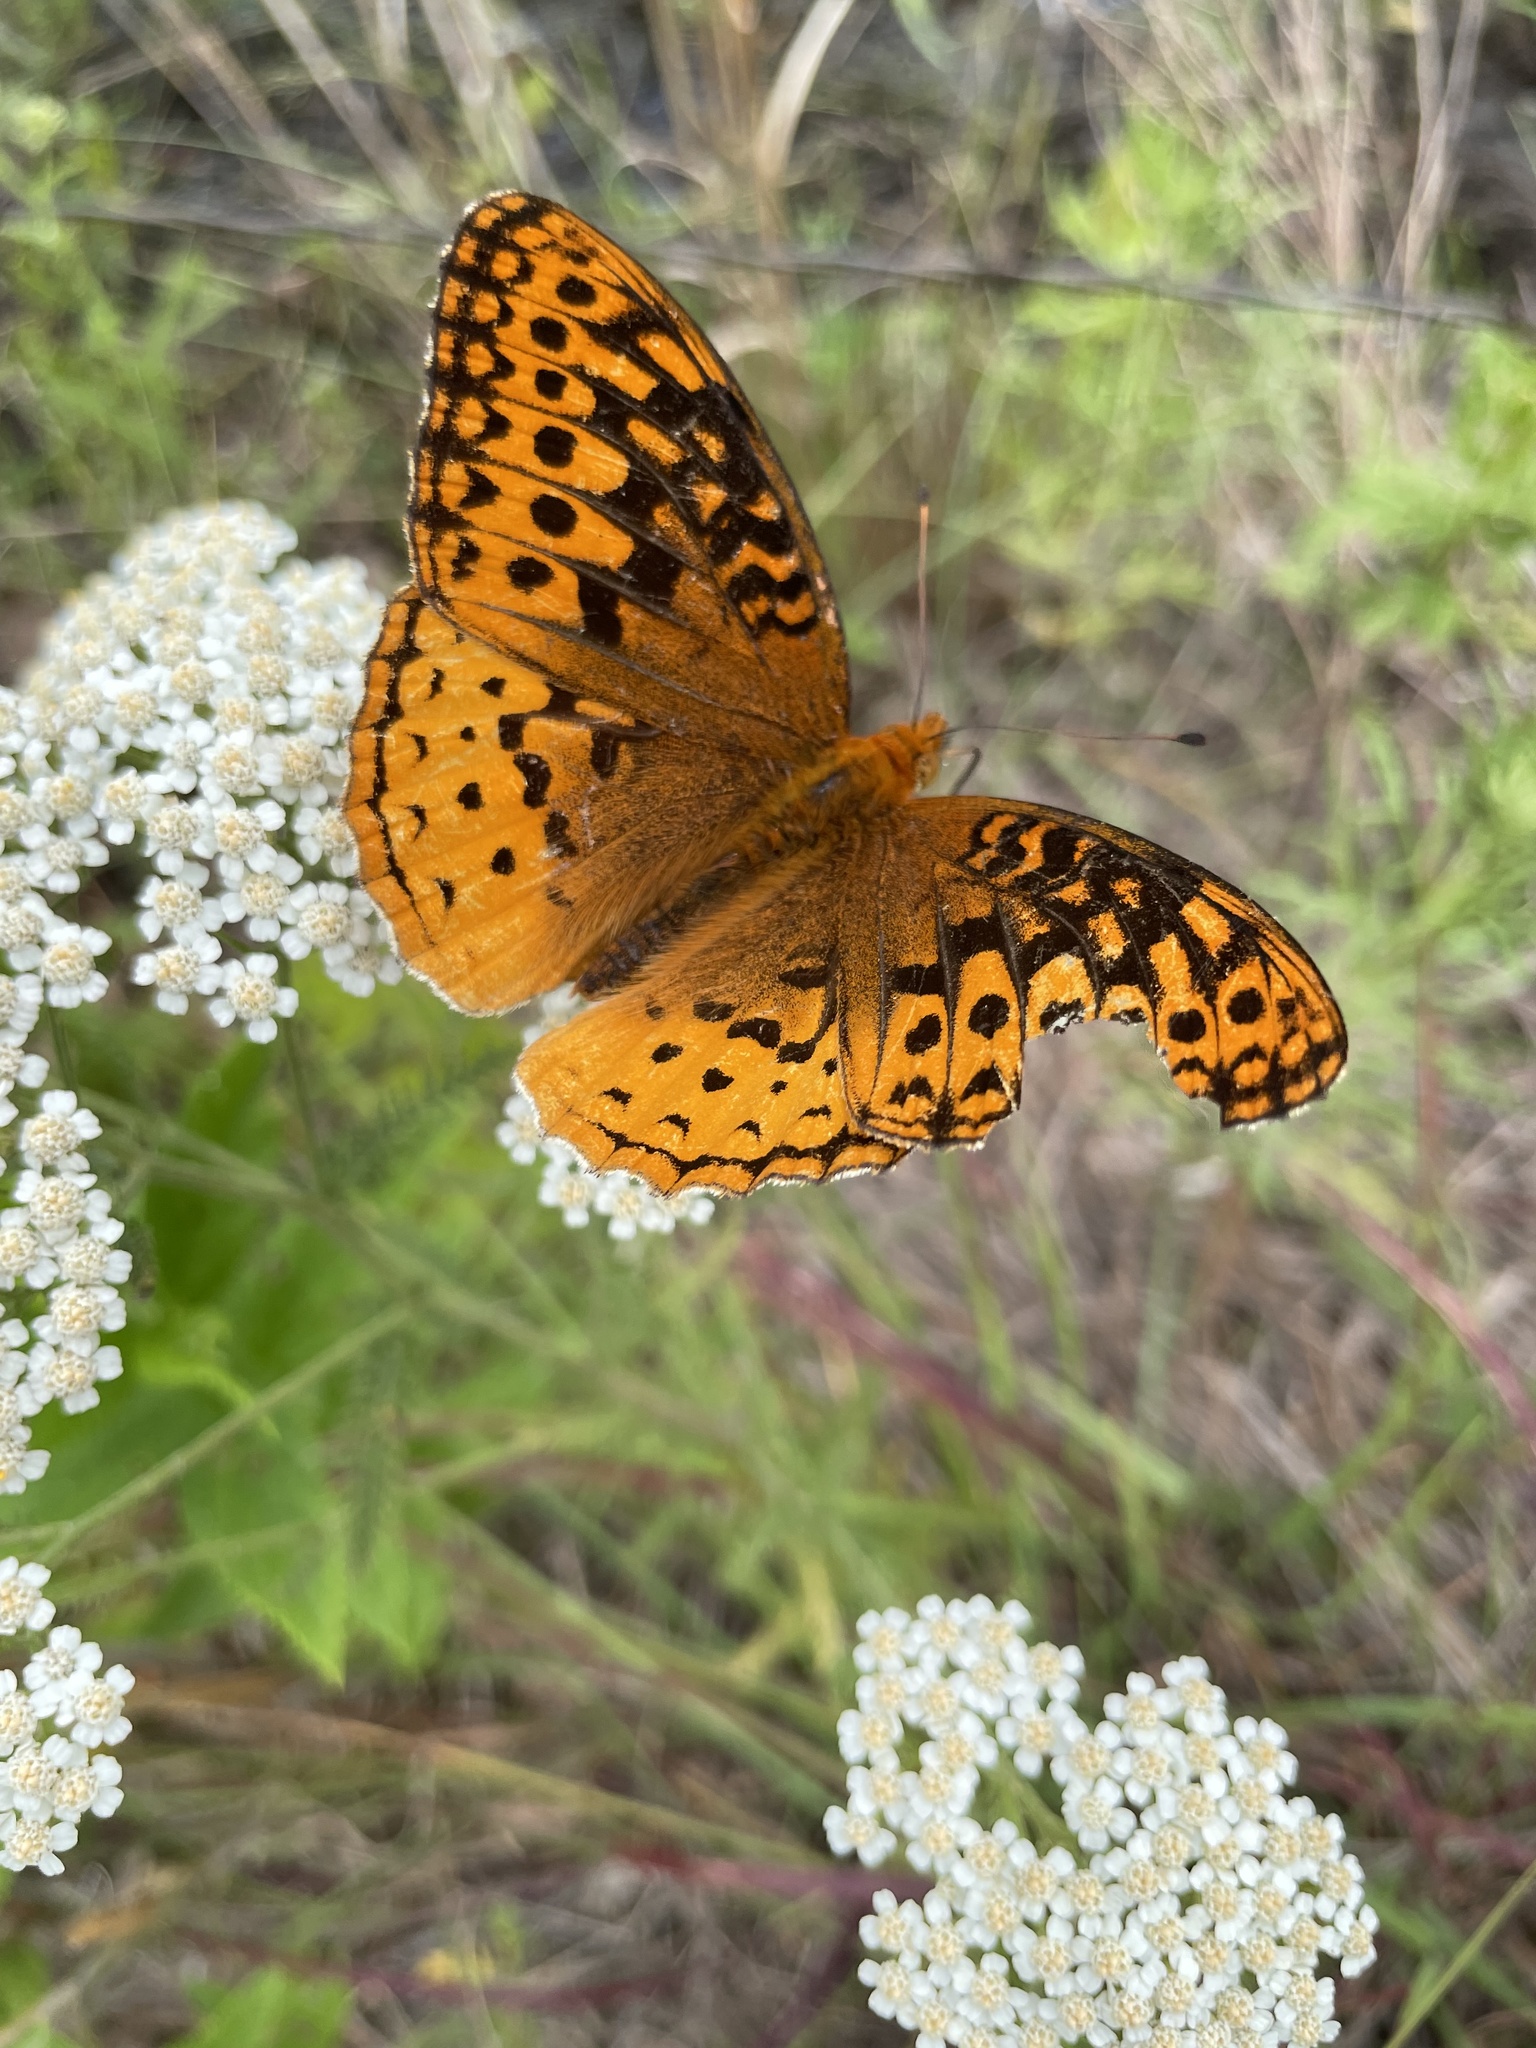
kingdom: Animalia
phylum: Arthropoda
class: Insecta
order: Lepidoptera
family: Nymphalidae
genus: Speyeria
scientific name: Speyeria cybele
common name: Great spangled fritillary
